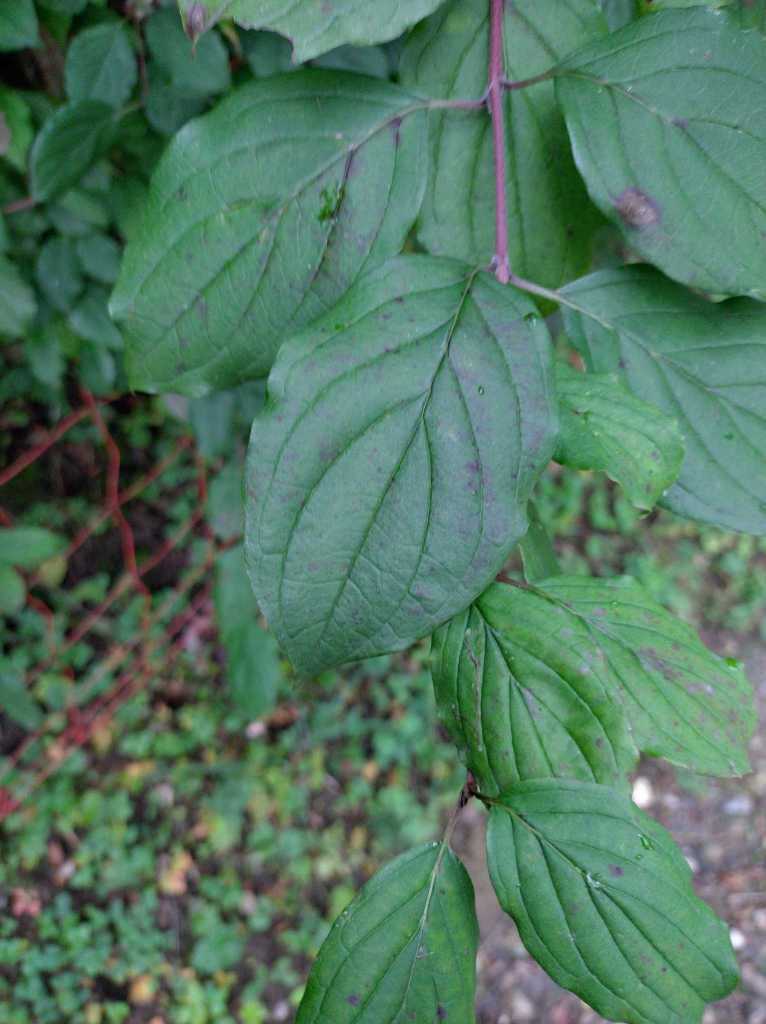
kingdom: Plantae
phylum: Tracheophyta
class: Magnoliopsida
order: Cornales
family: Cornaceae
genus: Cornus
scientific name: Cornus sanguinea
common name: Dogwood
